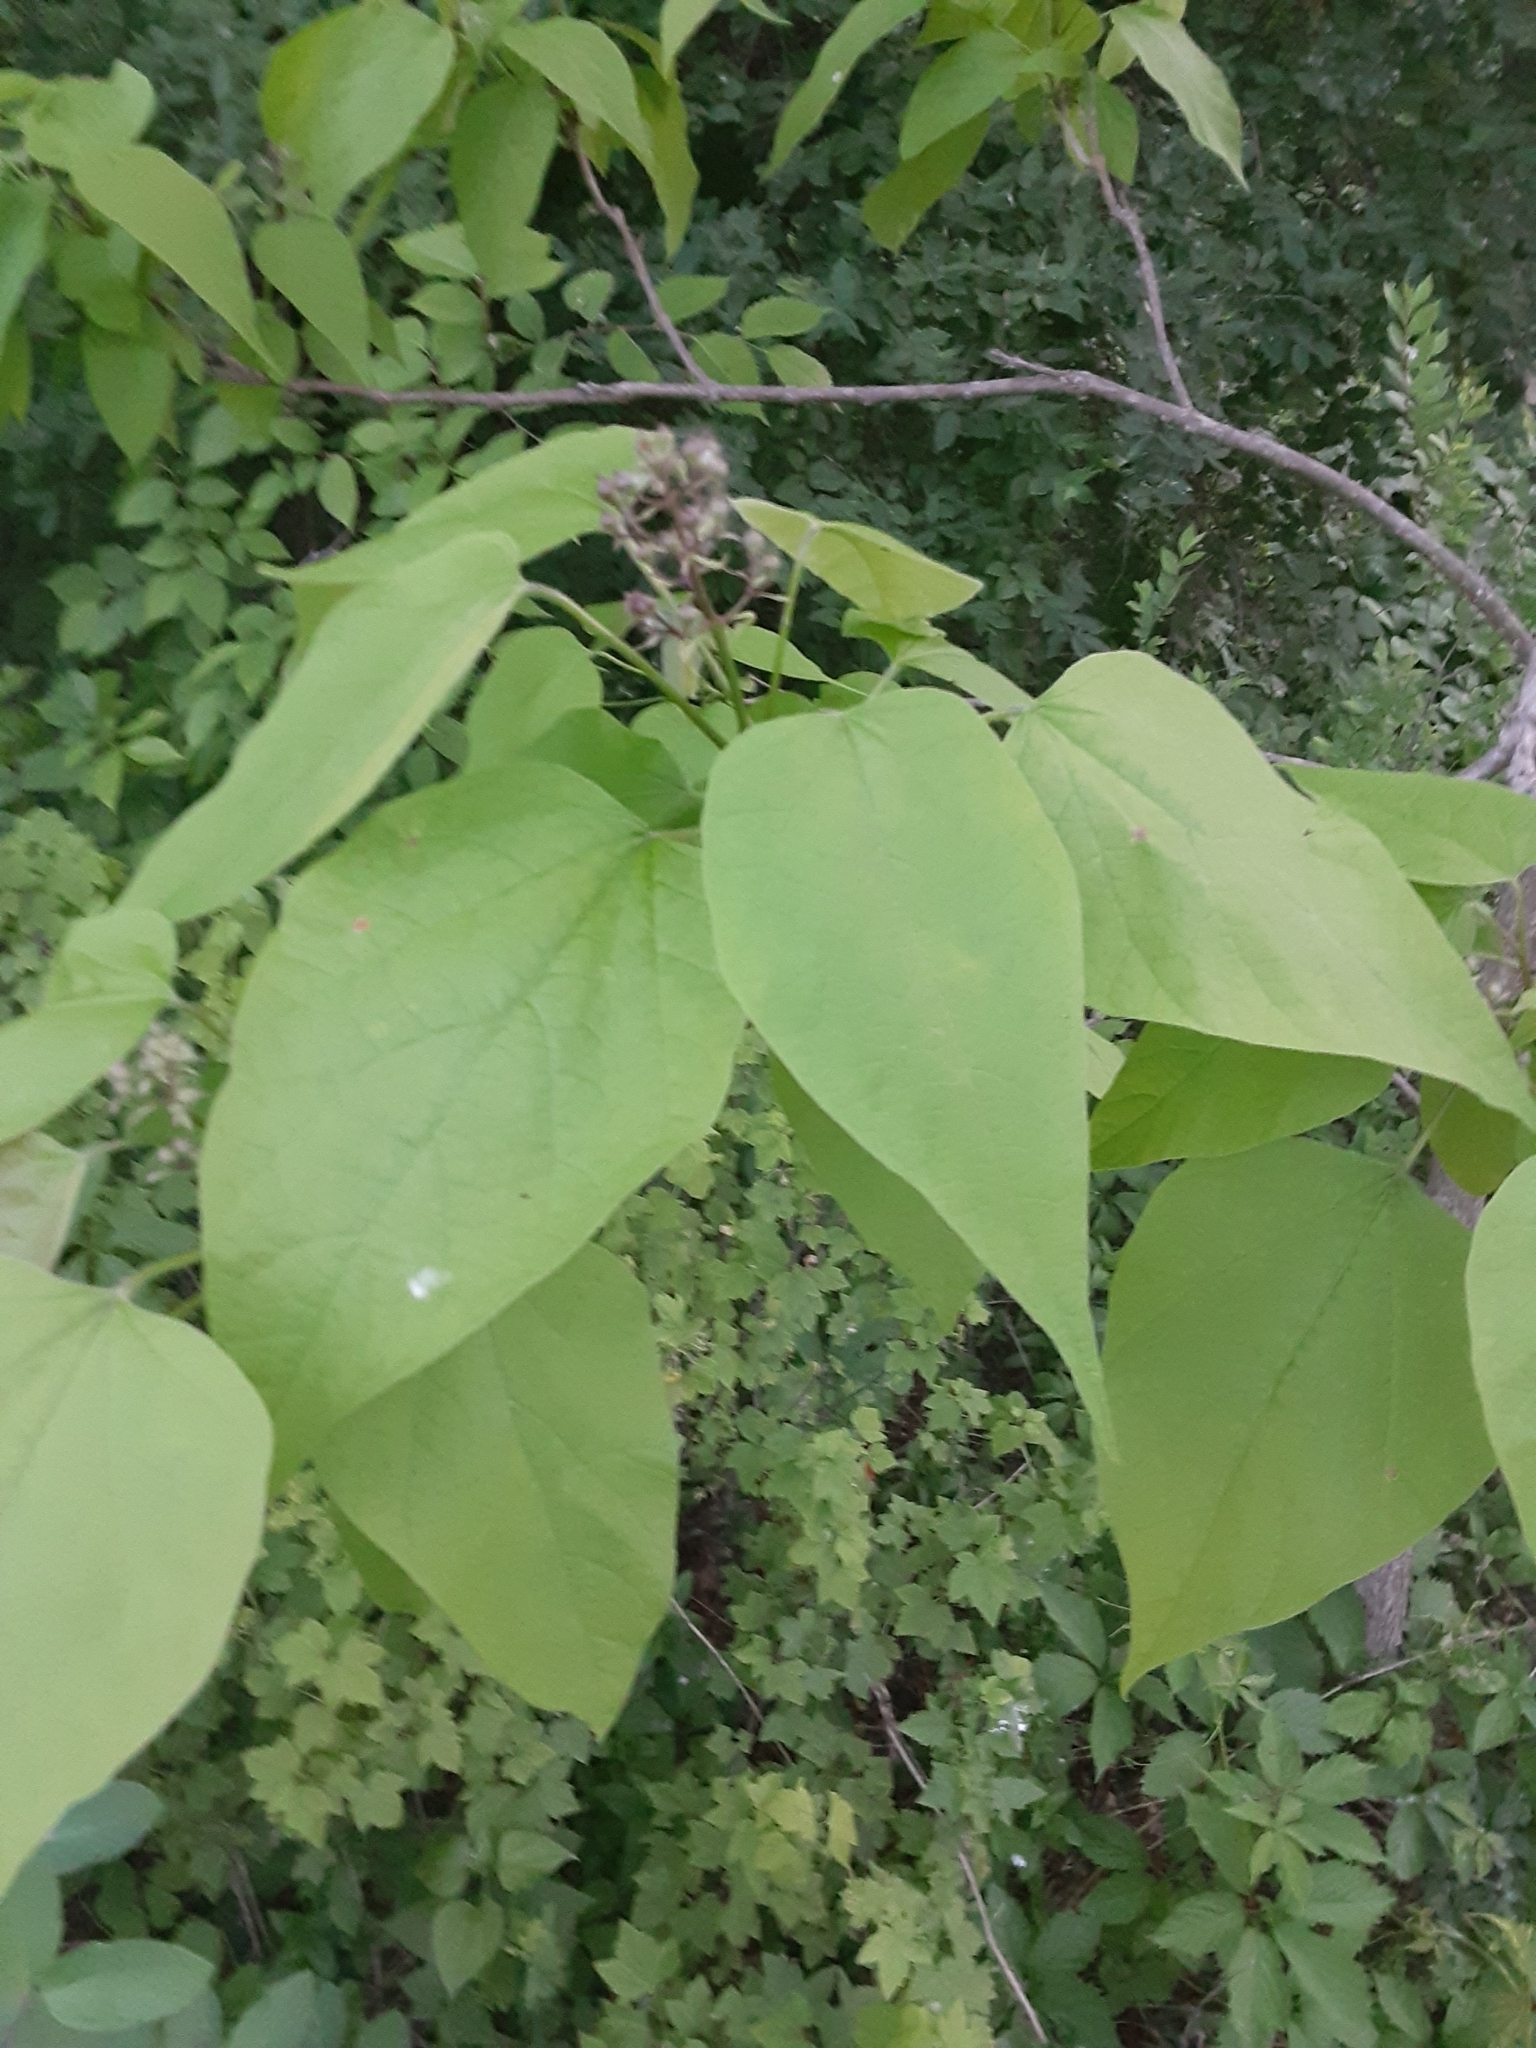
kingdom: Plantae
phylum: Tracheophyta
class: Magnoliopsida
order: Lamiales
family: Bignoniaceae
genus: Catalpa
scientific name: Catalpa speciosa
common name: Northern catalpa
